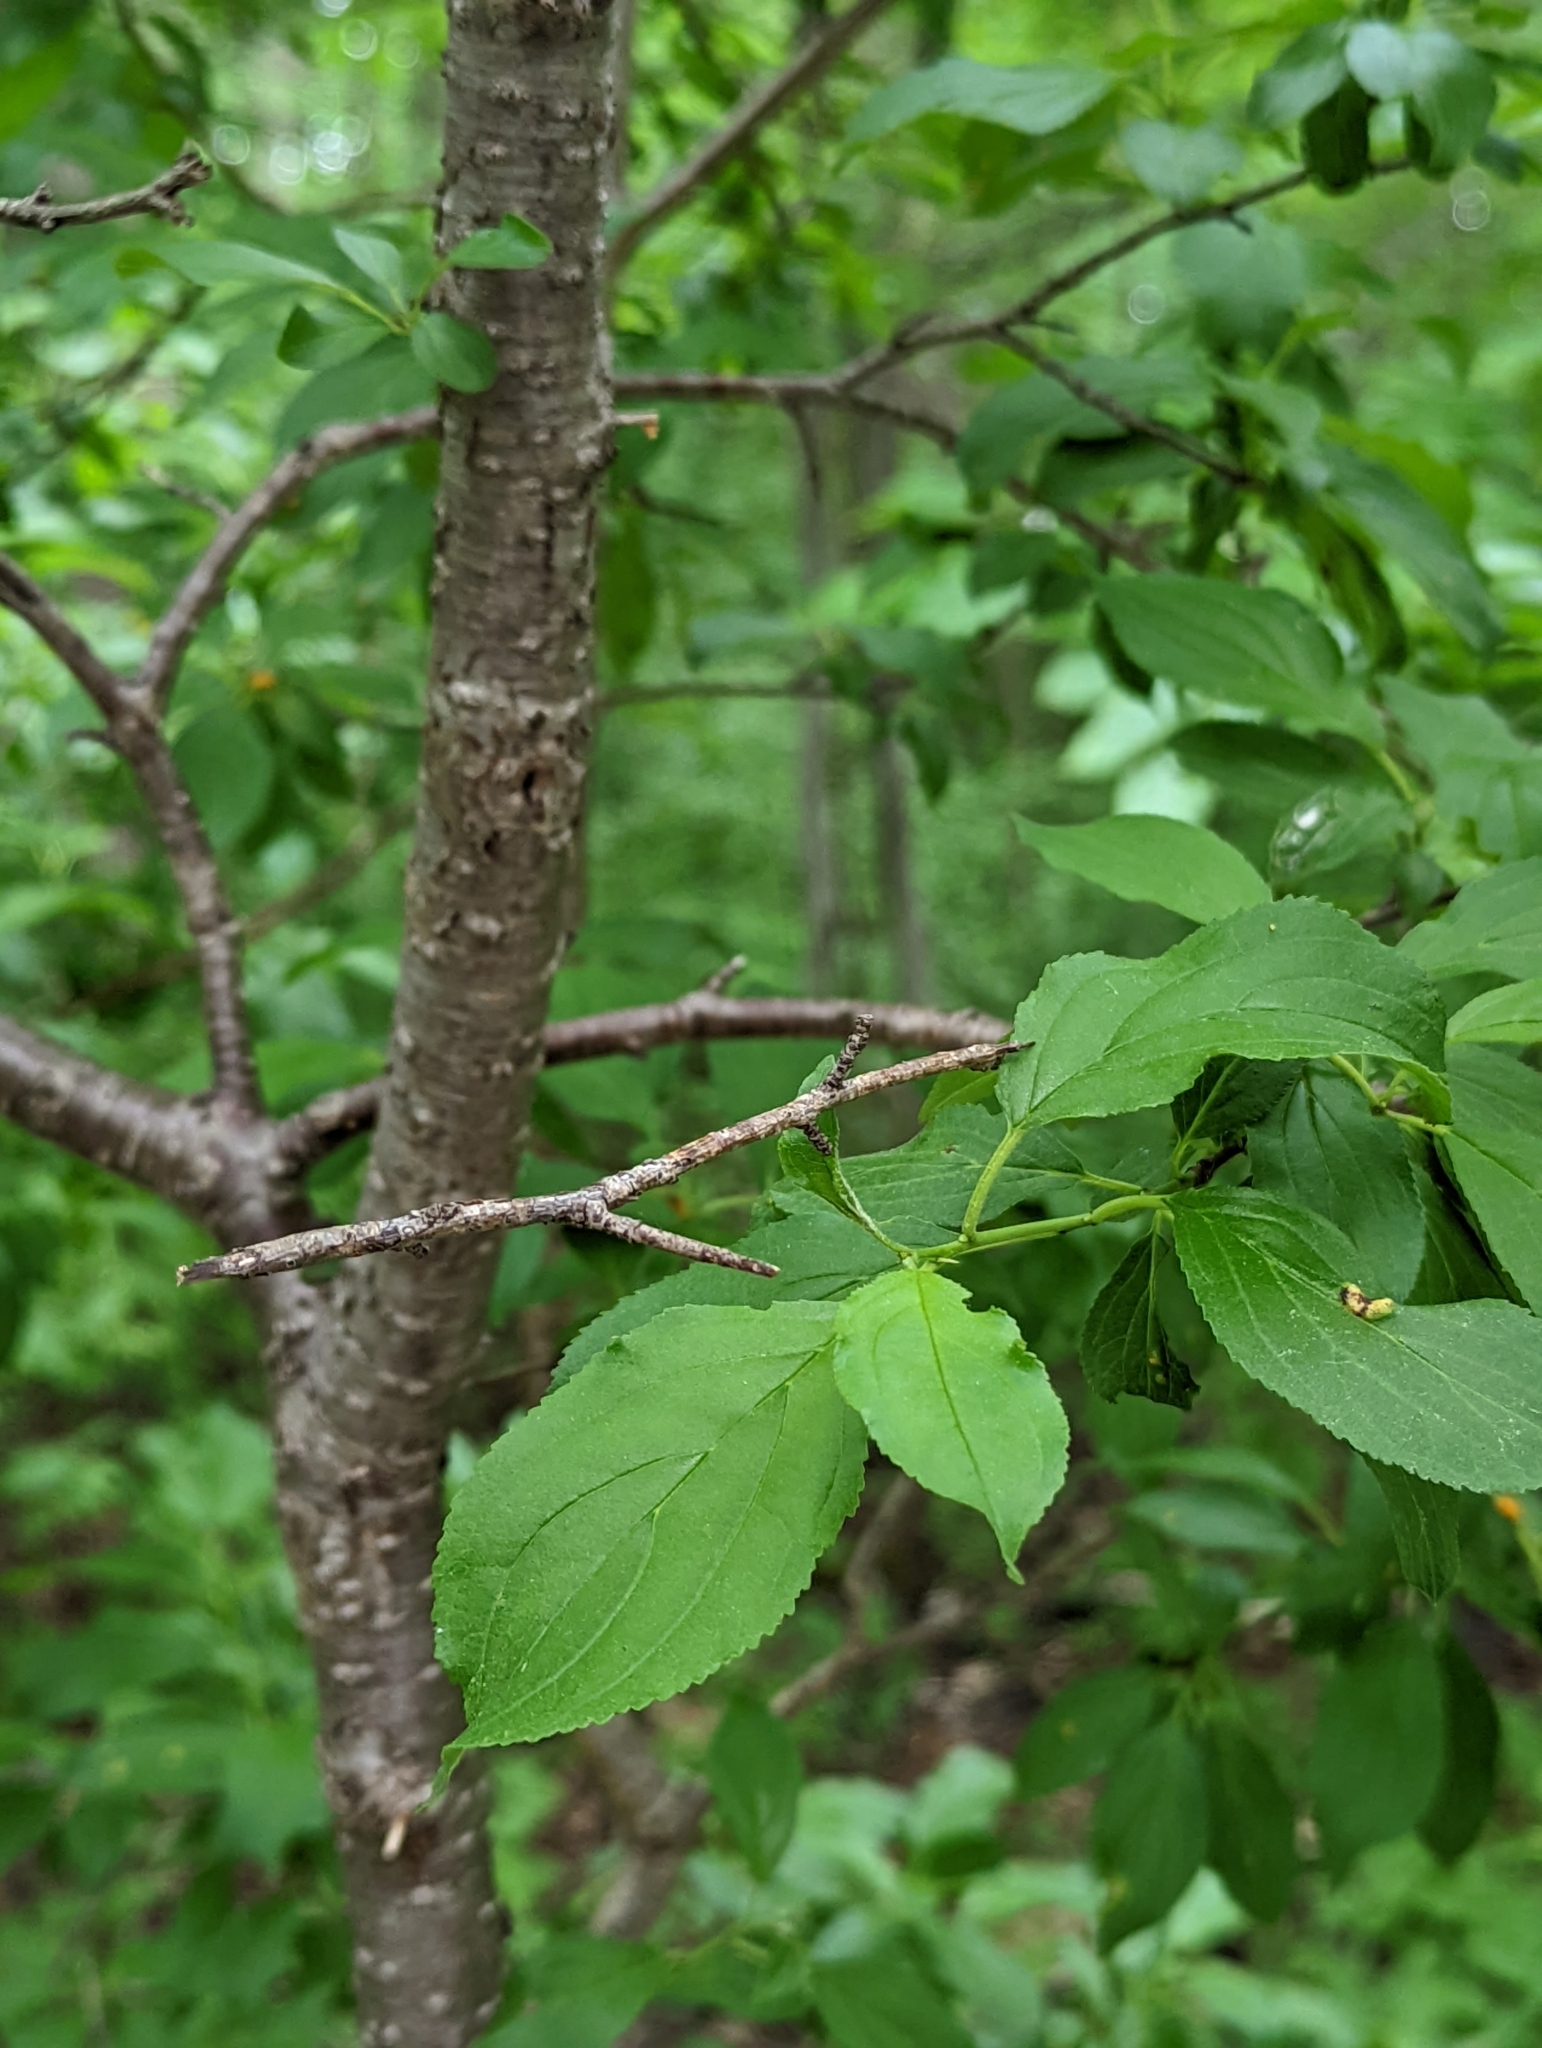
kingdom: Plantae
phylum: Tracheophyta
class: Magnoliopsida
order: Rosales
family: Rhamnaceae
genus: Rhamnus
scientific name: Rhamnus cathartica
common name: Common buckthorn
